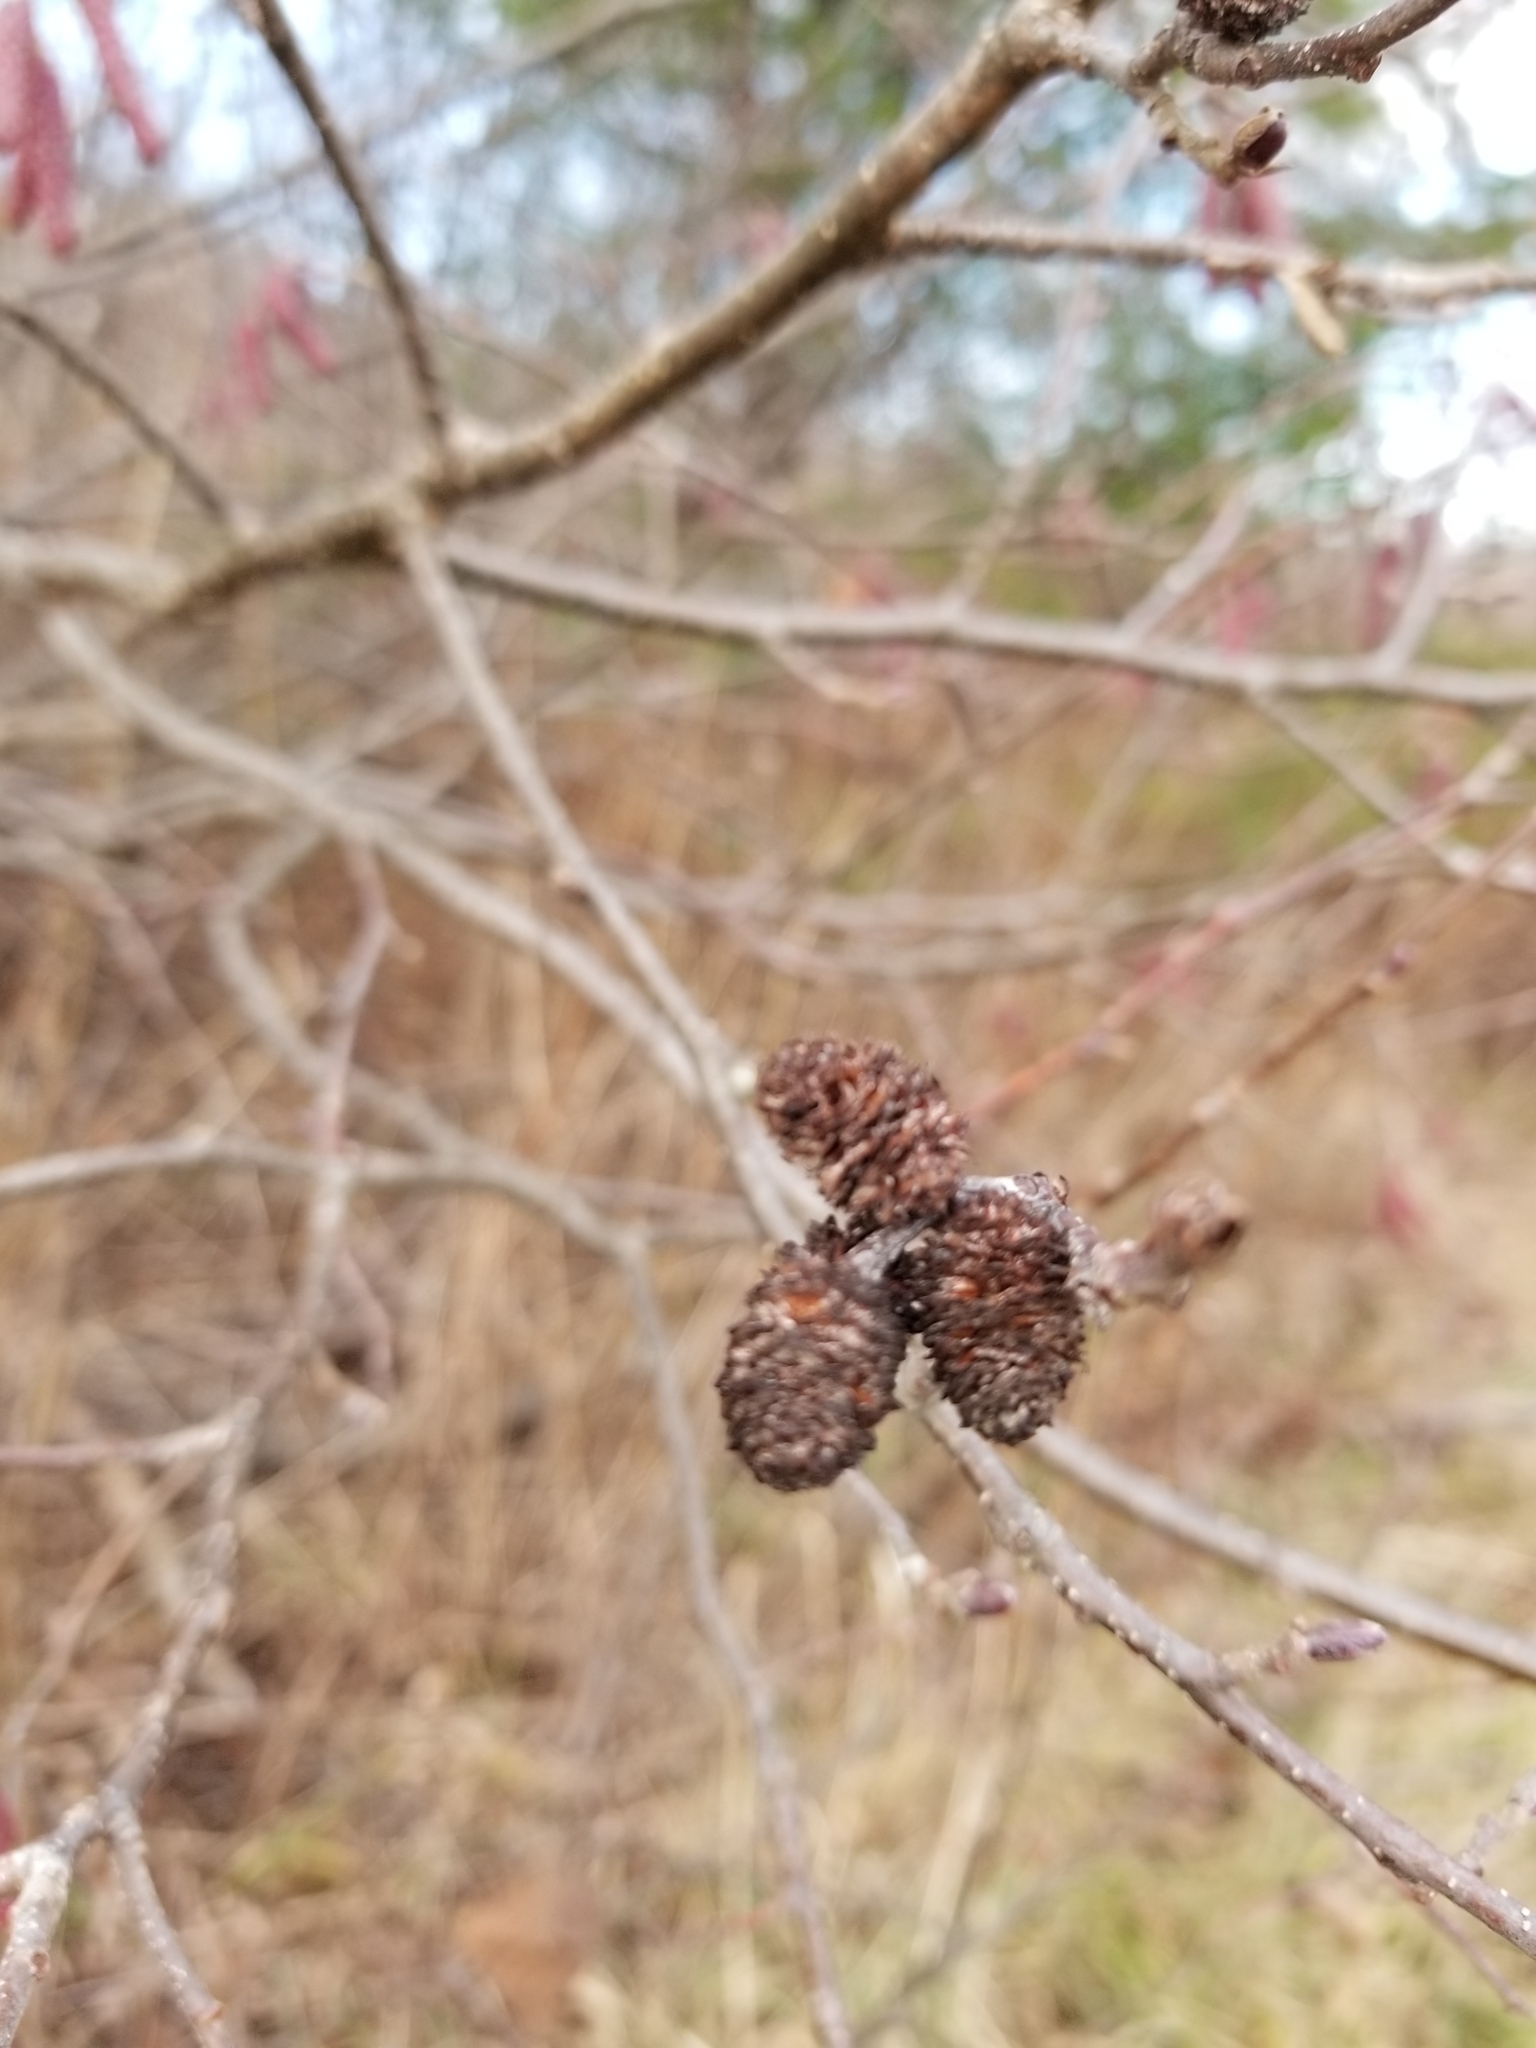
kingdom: Plantae
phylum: Tracheophyta
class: Magnoliopsida
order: Fagales
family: Betulaceae
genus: Alnus
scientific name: Alnus incana
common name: Grey alder
